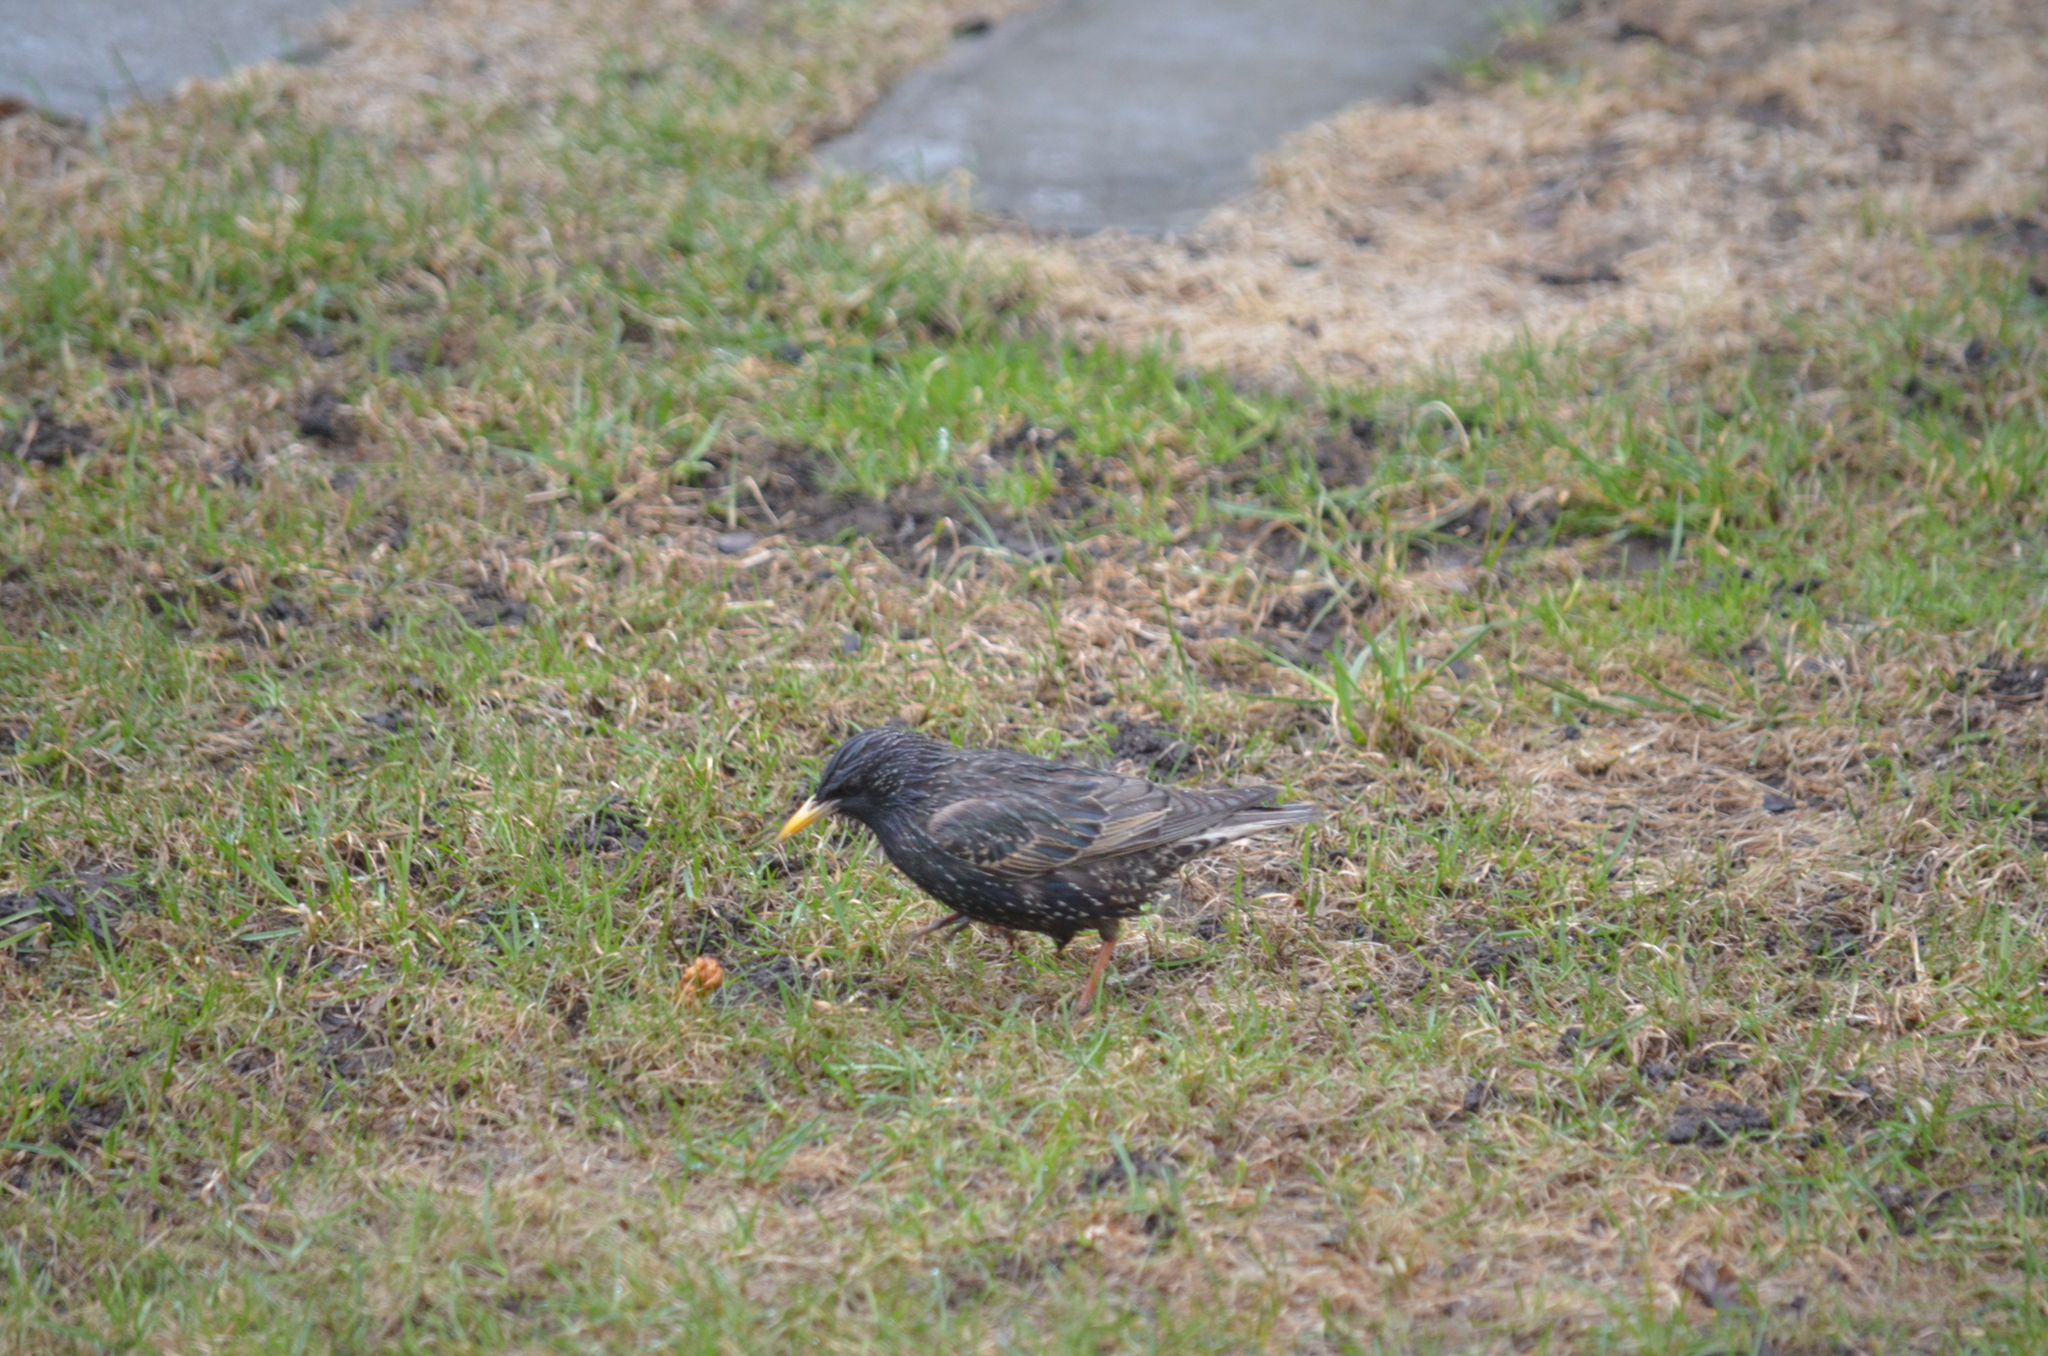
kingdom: Animalia
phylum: Chordata
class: Aves
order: Passeriformes
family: Sturnidae
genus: Sturnus
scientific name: Sturnus vulgaris
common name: Common starling
